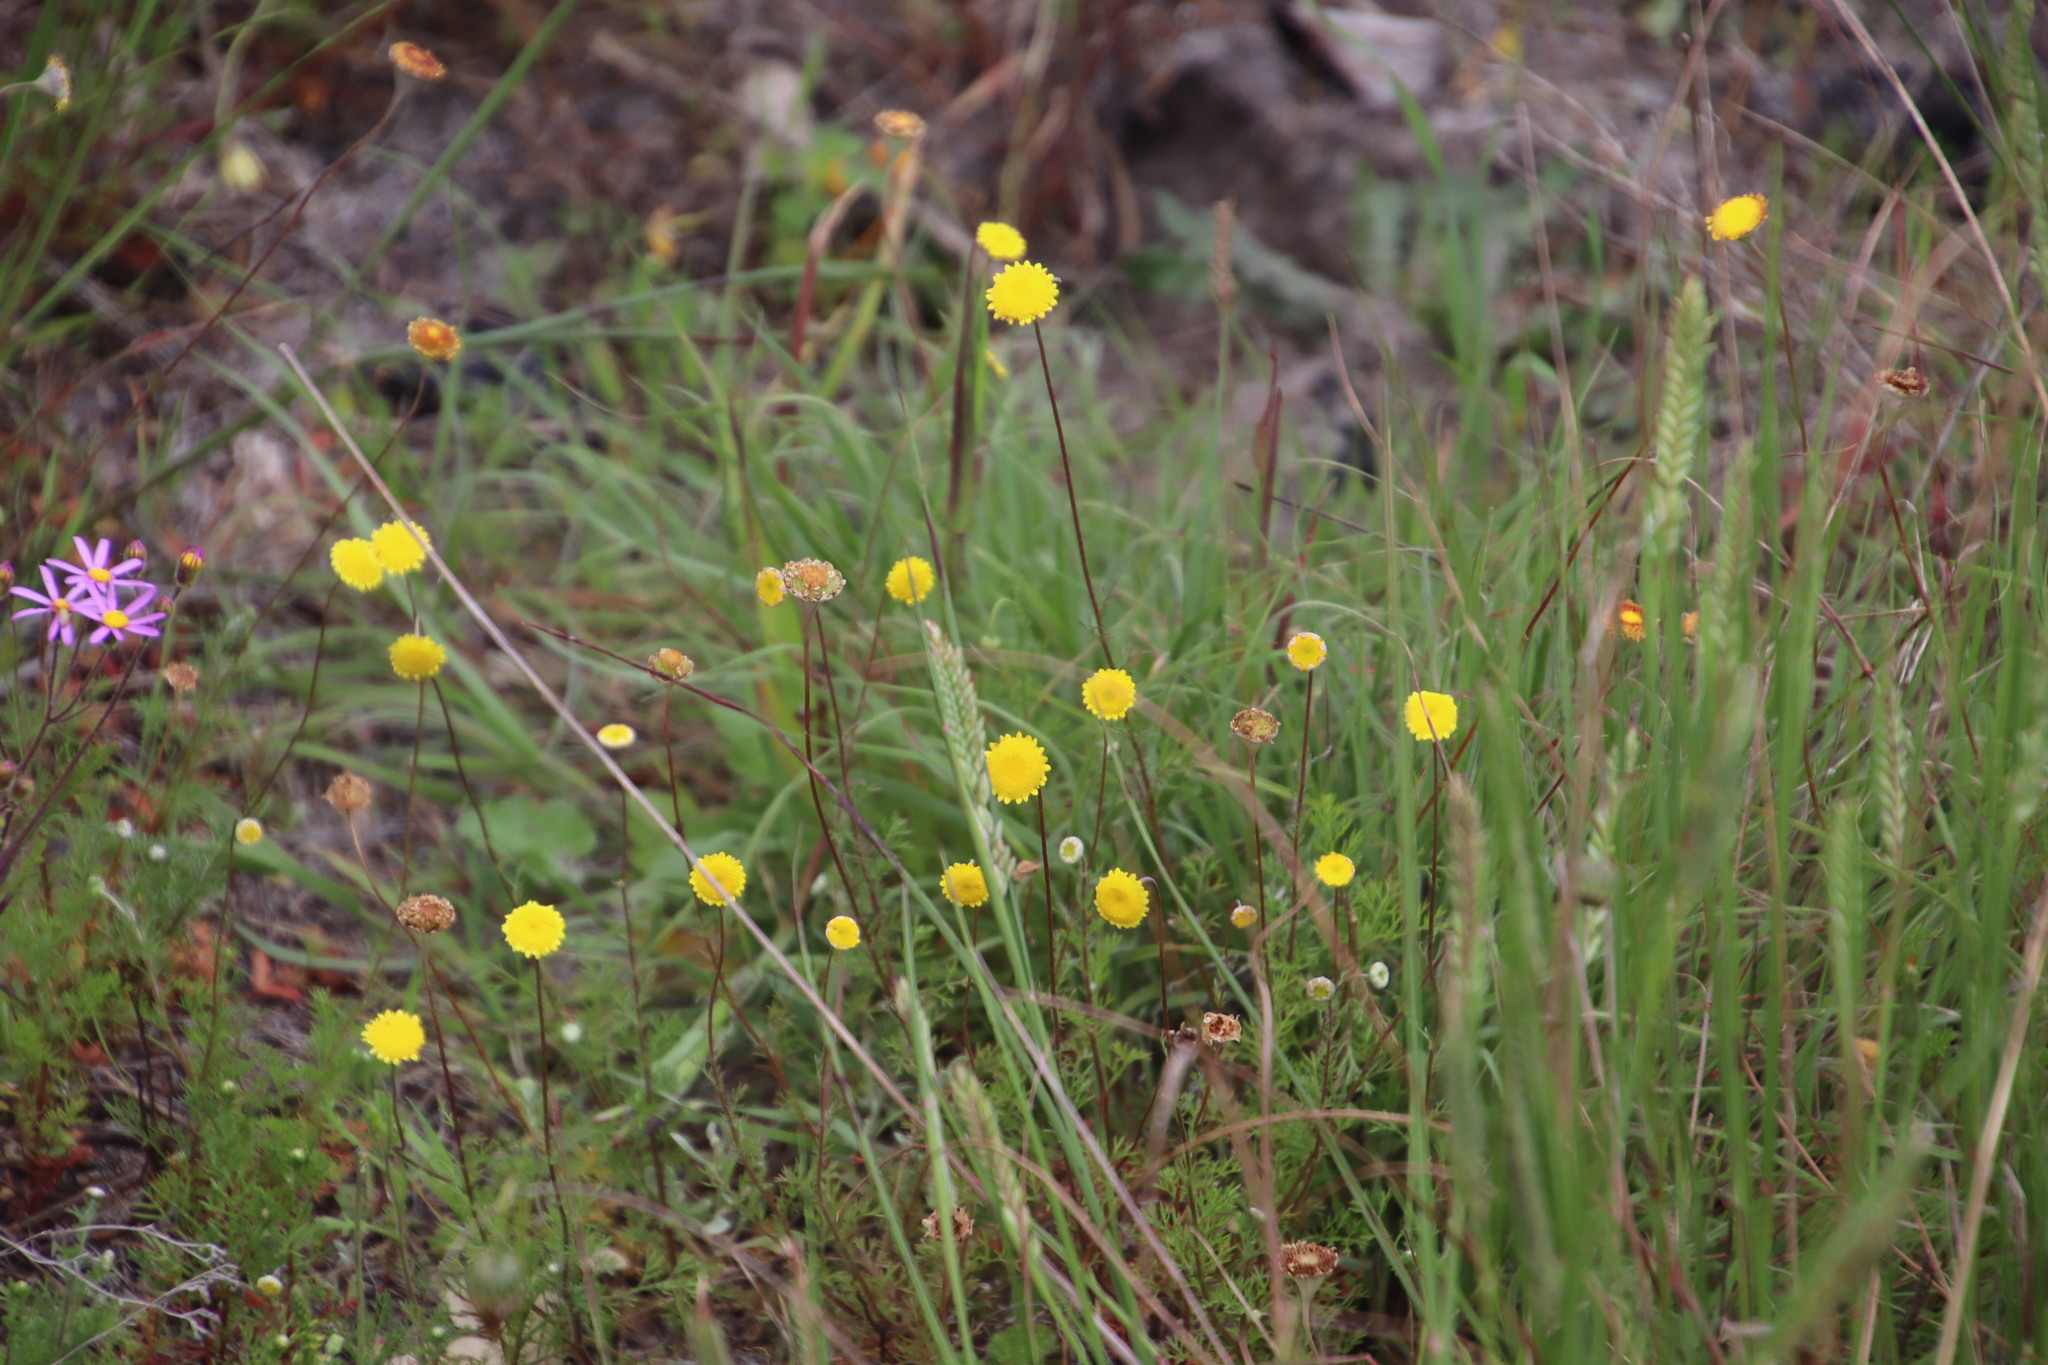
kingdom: Plantae
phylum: Tracheophyta
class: Magnoliopsida
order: Asterales
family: Asteraceae
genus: Cotula
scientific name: Cotula pruinosa
